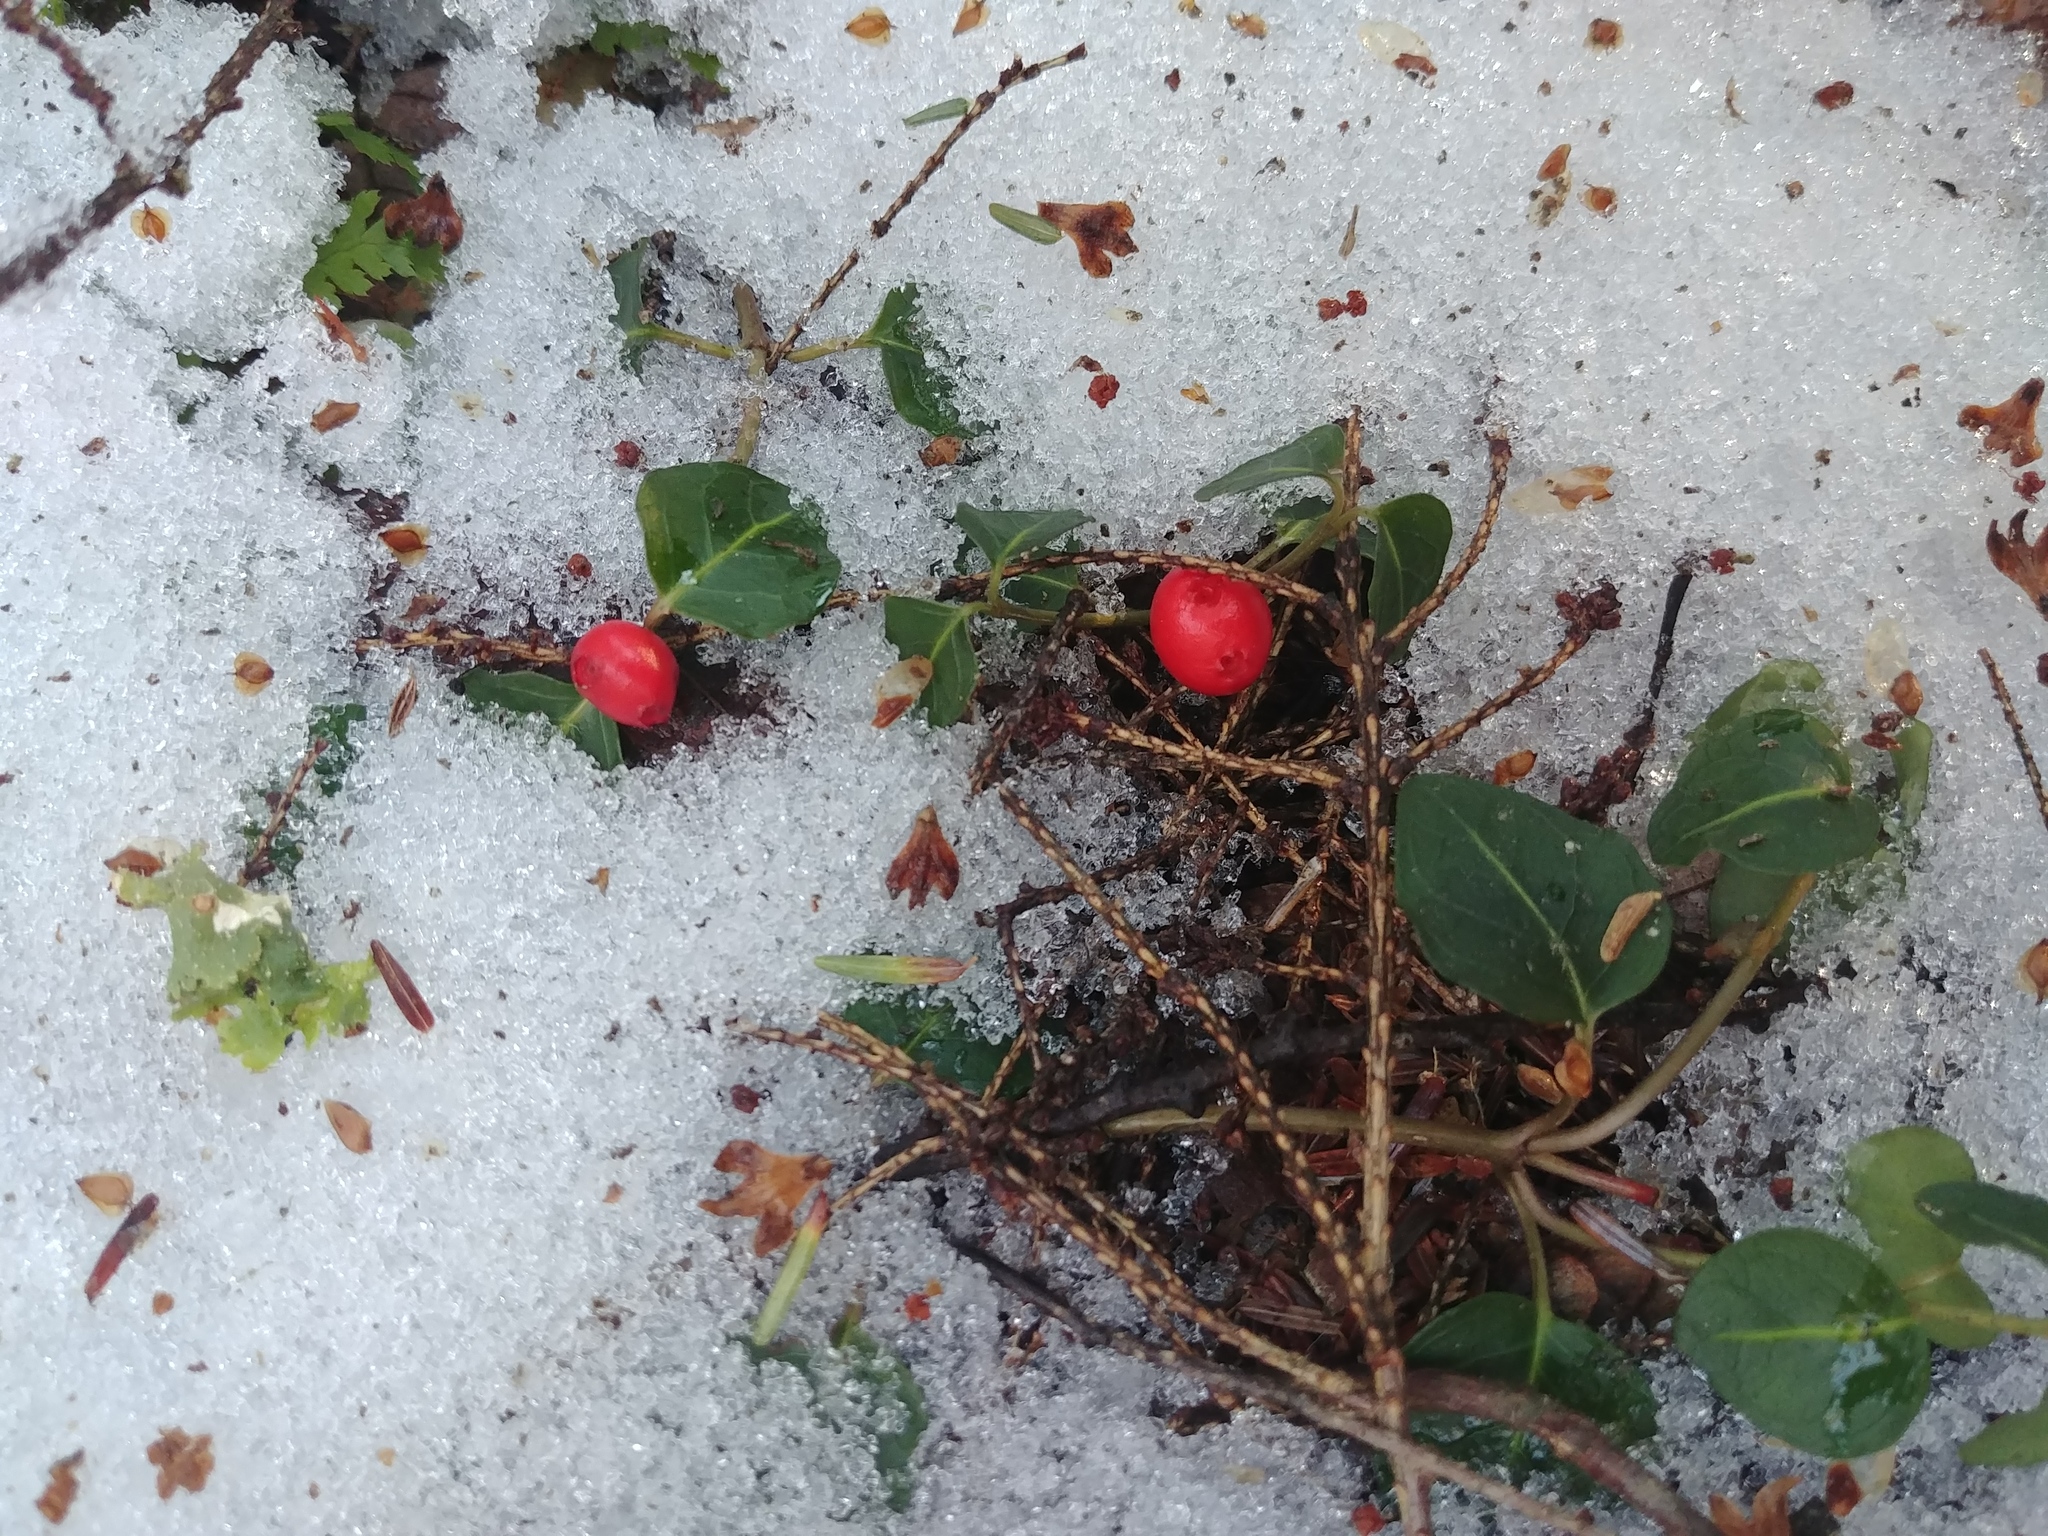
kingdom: Plantae
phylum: Tracheophyta
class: Magnoliopsida
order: Gentianales
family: Rubiaceae
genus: Mitchella
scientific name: Mitchella repens
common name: Partridge-berry
